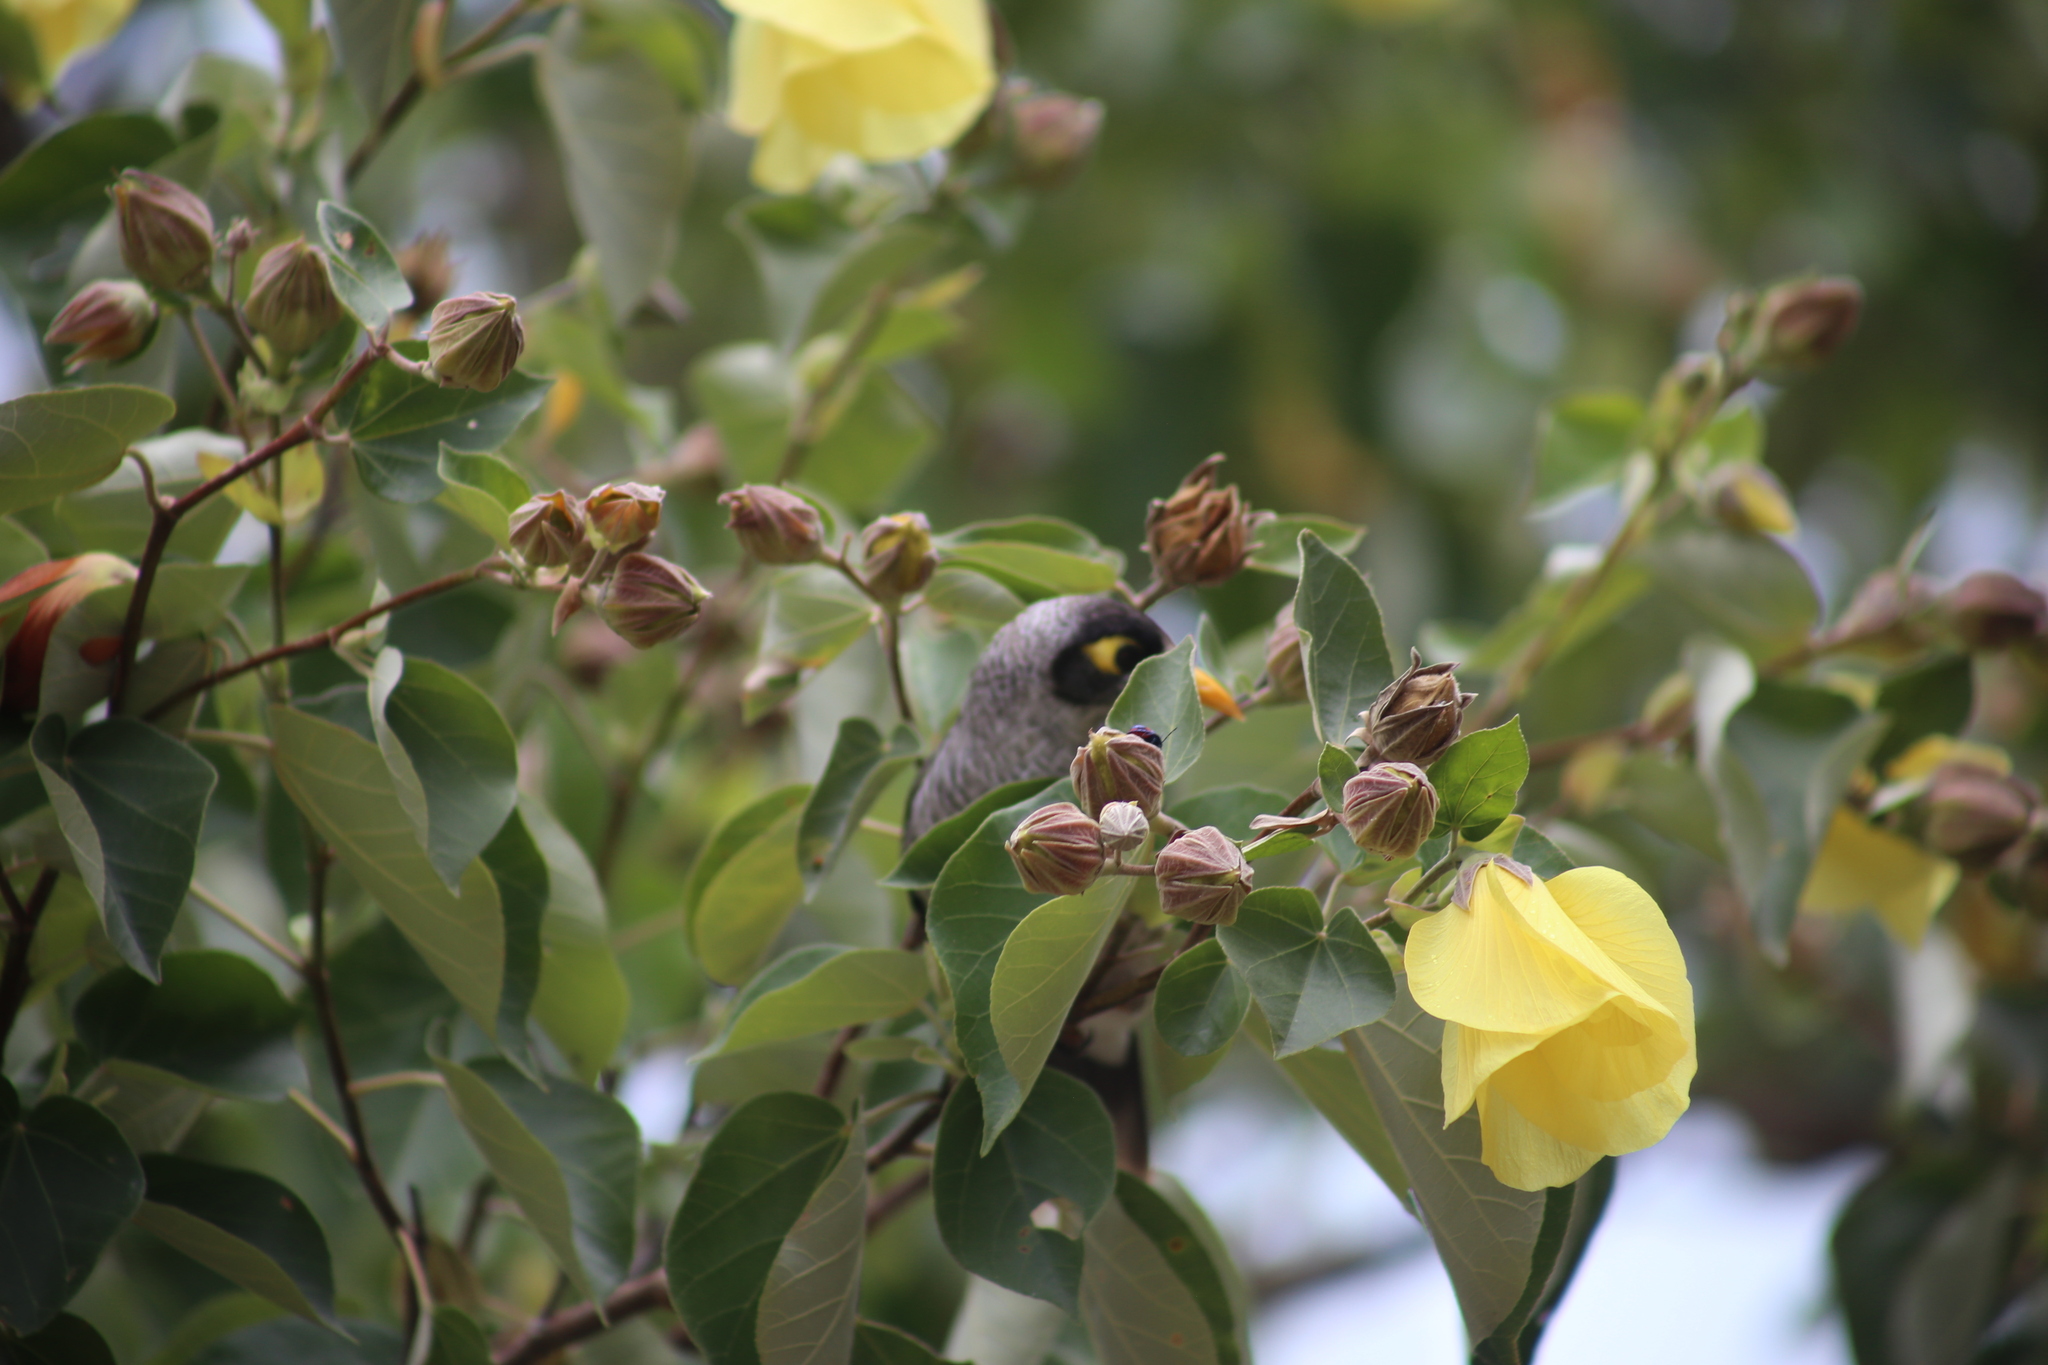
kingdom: Animalia
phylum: Chordata
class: Aves
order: Passeriformes
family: Meliphagidae
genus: Manorina
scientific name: Manorina melanocephala
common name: Noisy miner
